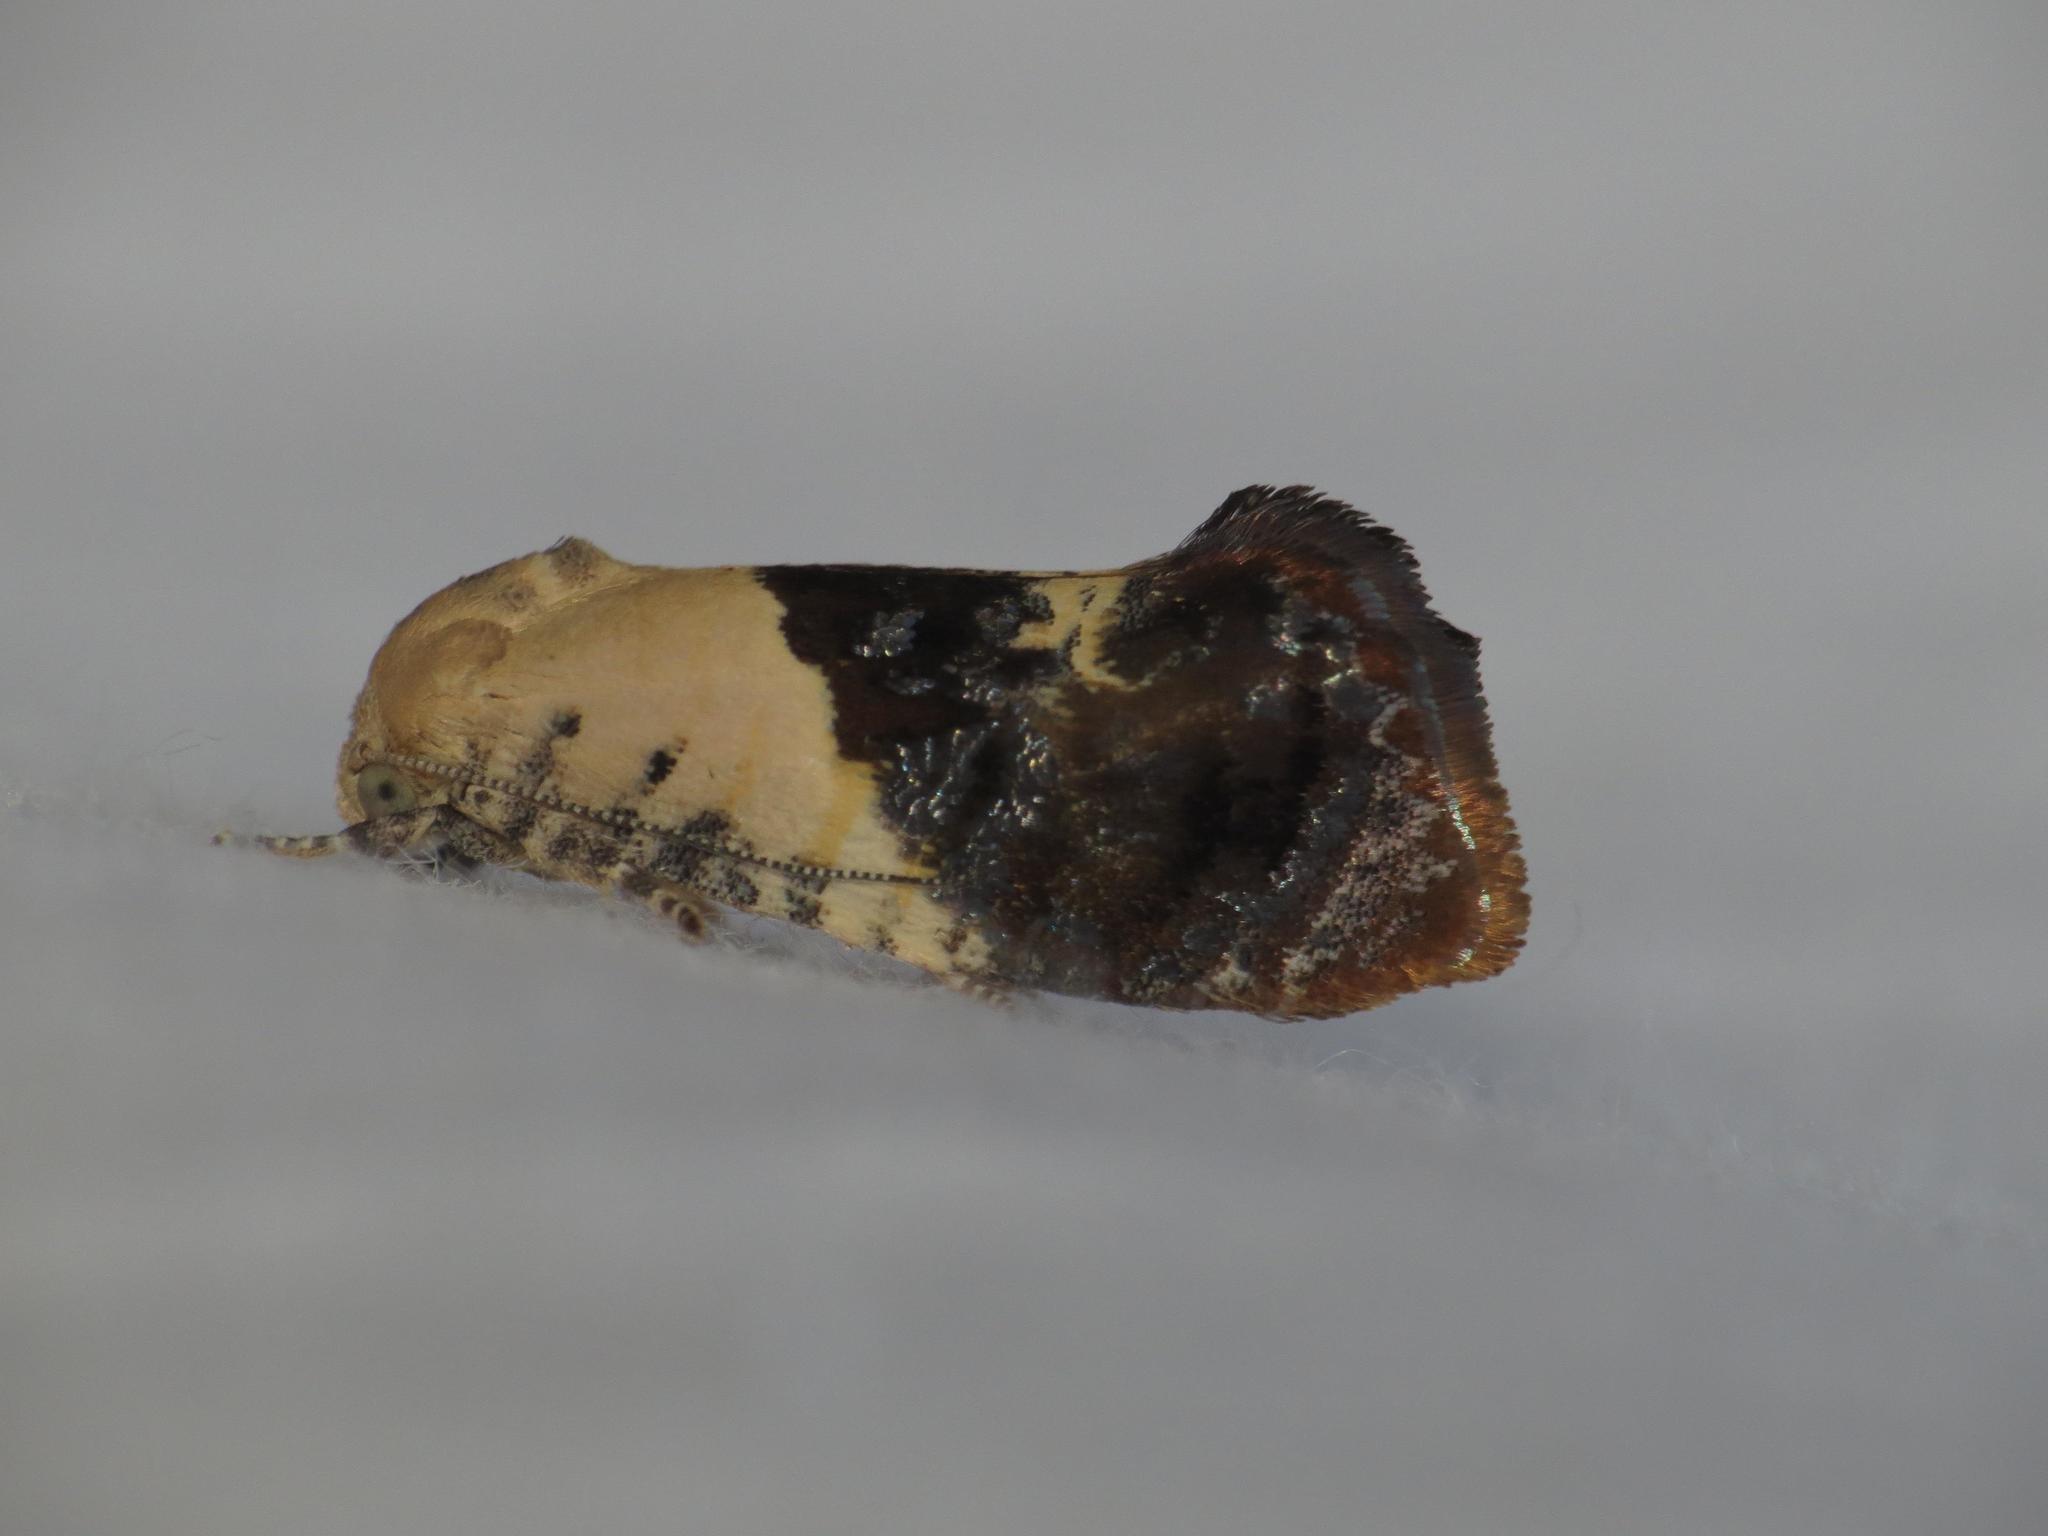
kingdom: Animalia
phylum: Arthropoda
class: Insecta
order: Lepidoptera
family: Depressariidae
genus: Hypertropha
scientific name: Hypertropha chlaenota
